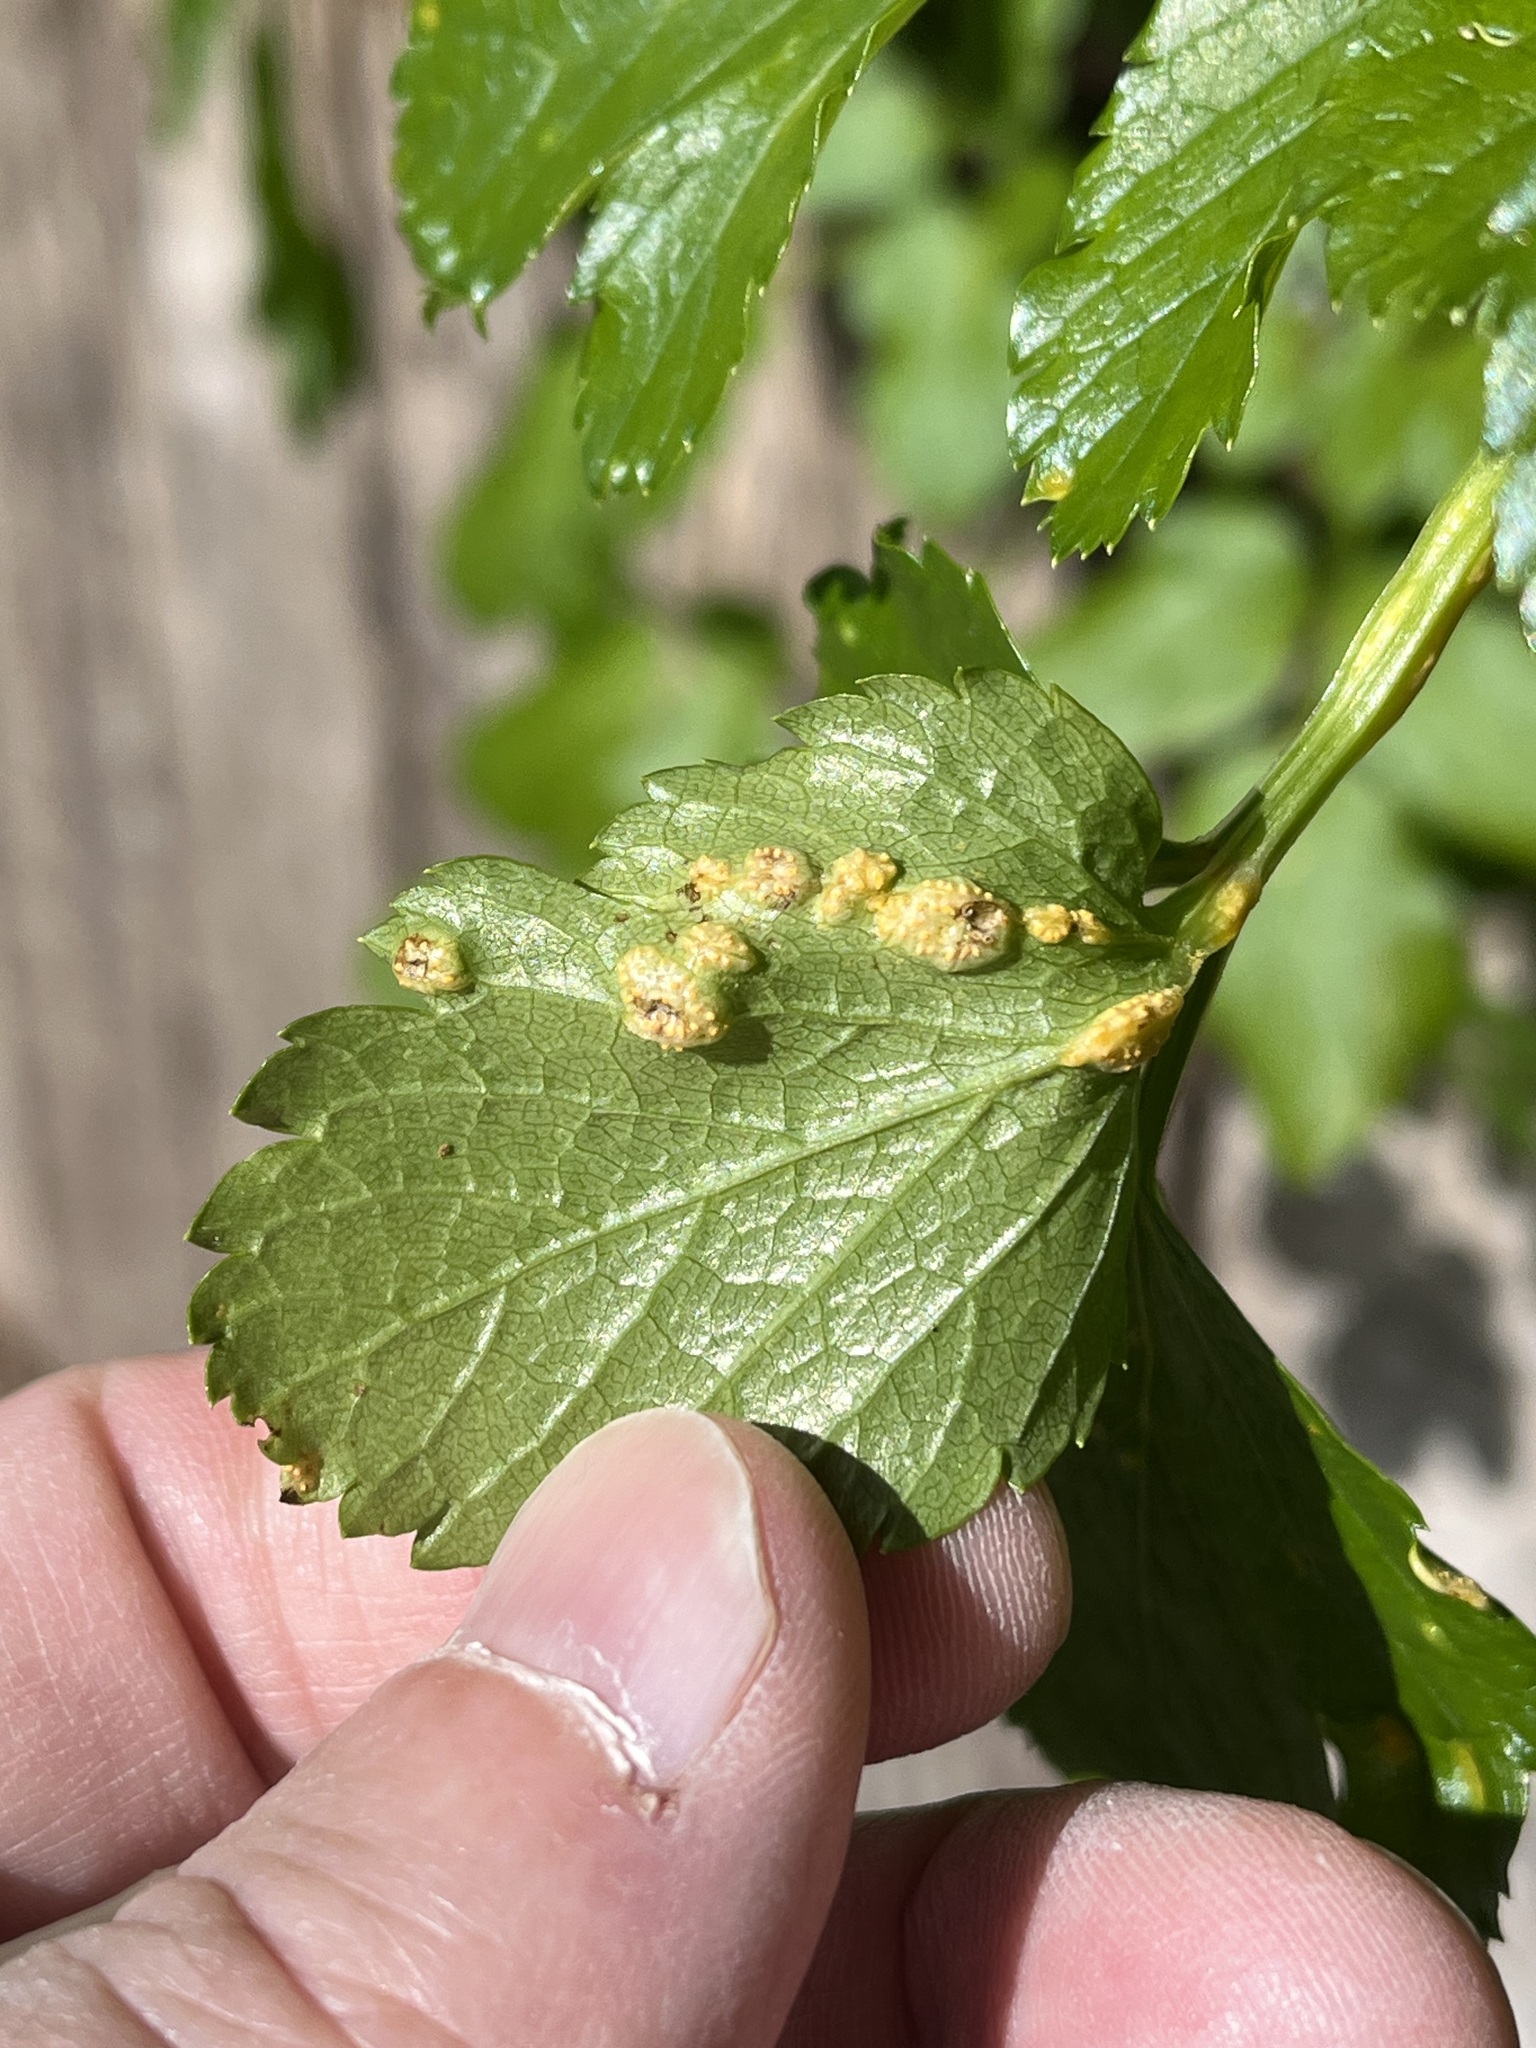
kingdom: Fungi
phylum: Basidiomycota
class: Pucciniomycetes
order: Pucciniales
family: Pucciniaceae
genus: Puccinia
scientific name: Puccinia smyrnii
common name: Alexanders rust
